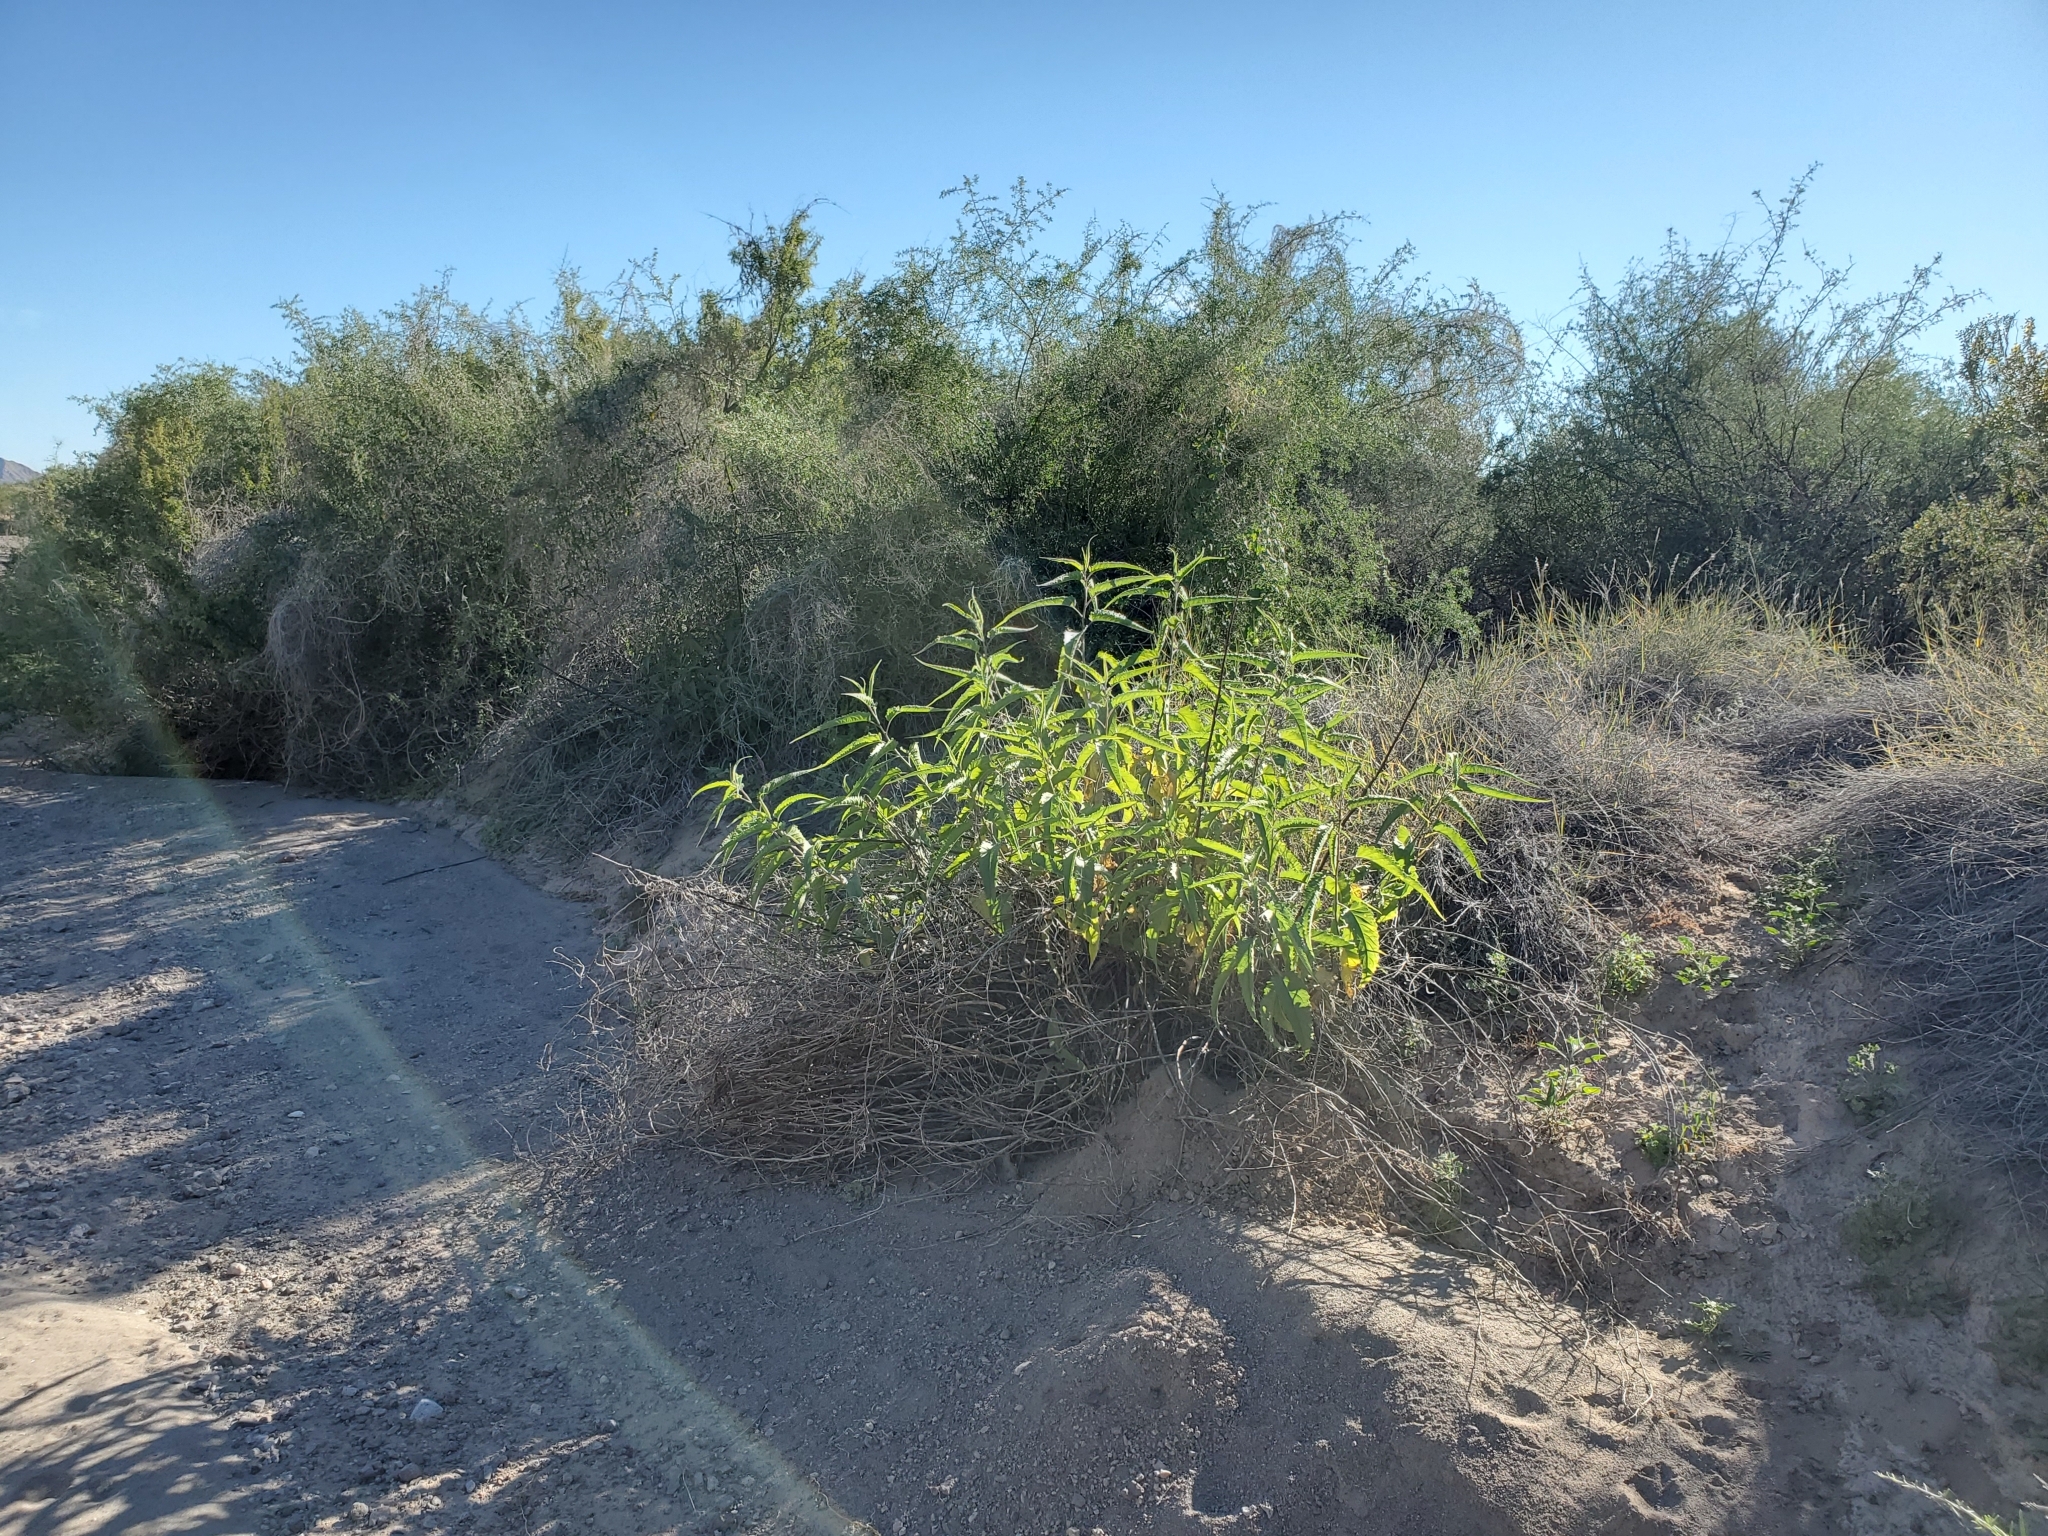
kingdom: Plantae
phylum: Tracheophyta
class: Magnoliopsida
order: Asterales
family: Asteraceae
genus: Ambrosia
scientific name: Ambrosia ambrosioides
